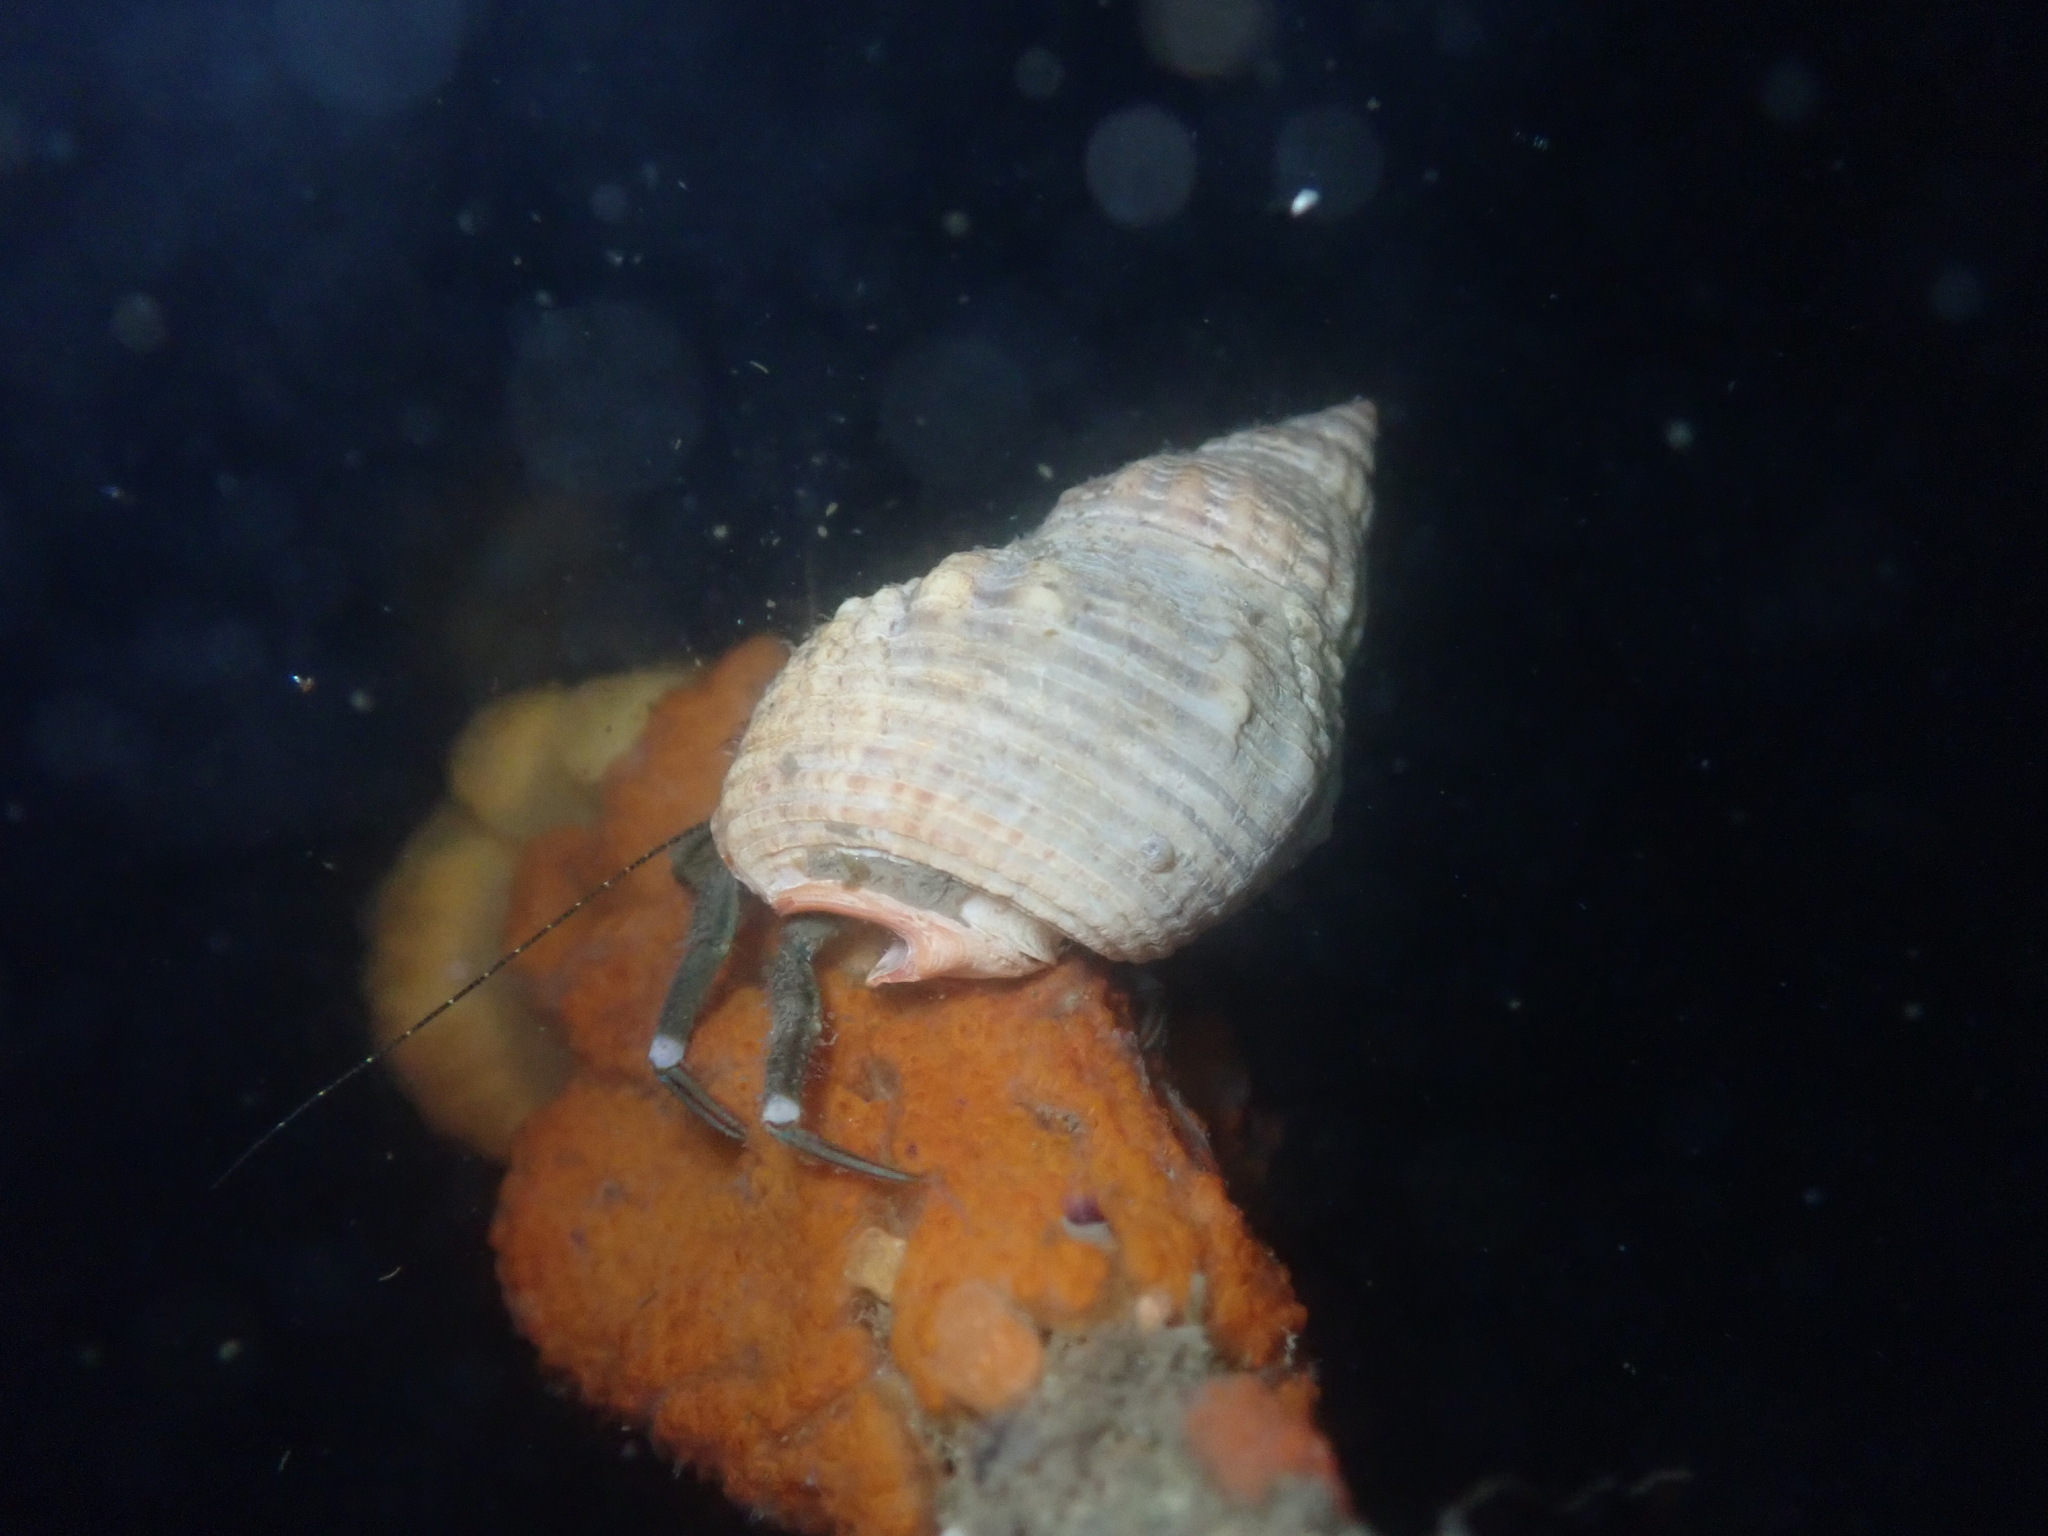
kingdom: Animalia
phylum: Arthropoda
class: Malacostraca
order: Decapoda
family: Paguridae
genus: Pagurus
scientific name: Pagurus hirsutiusculus
